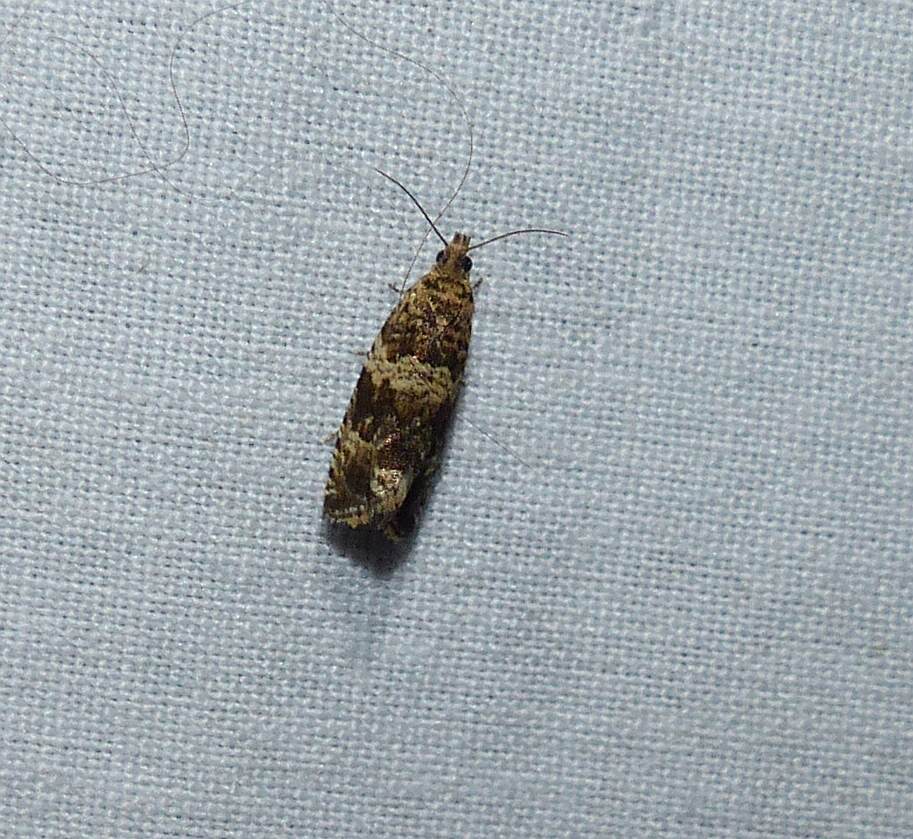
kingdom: Animalia
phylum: Arthropoda
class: Insecta
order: Lepidoptera
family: Tortricidae
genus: Celypha
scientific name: Celypha cespitana
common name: Thyme marble
